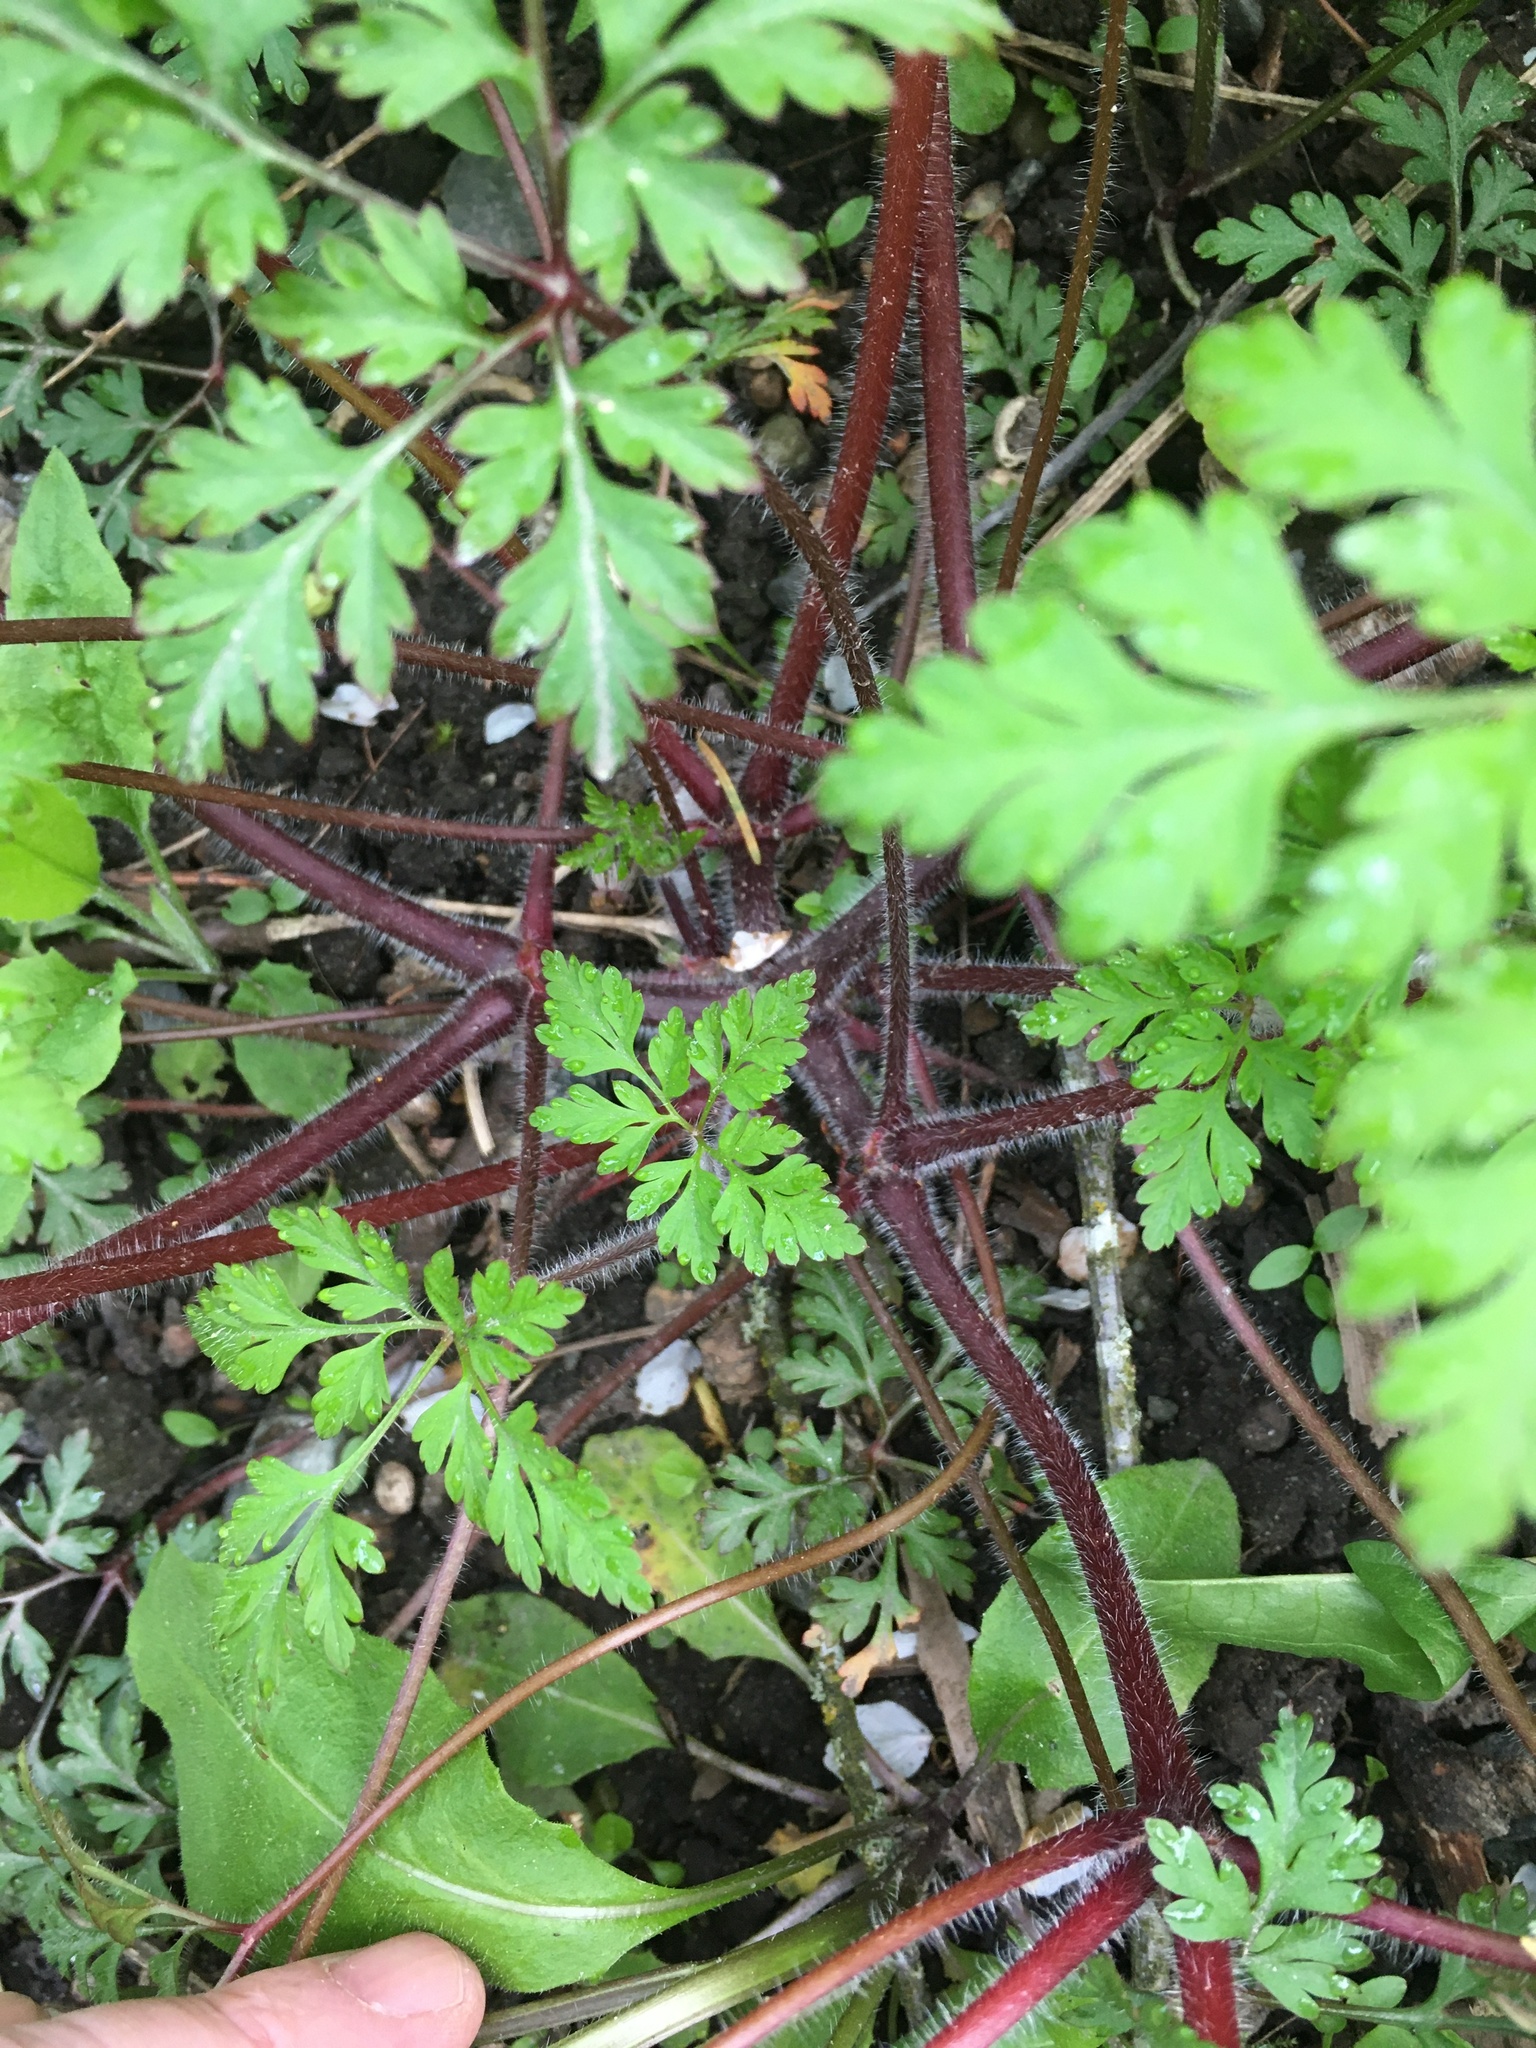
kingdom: Plantae
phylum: Tracheophyta
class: Magnoliopsida
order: Geraniales
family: Geraniaceae
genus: Geranium
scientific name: Geranium robertianum
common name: Herb-robert
